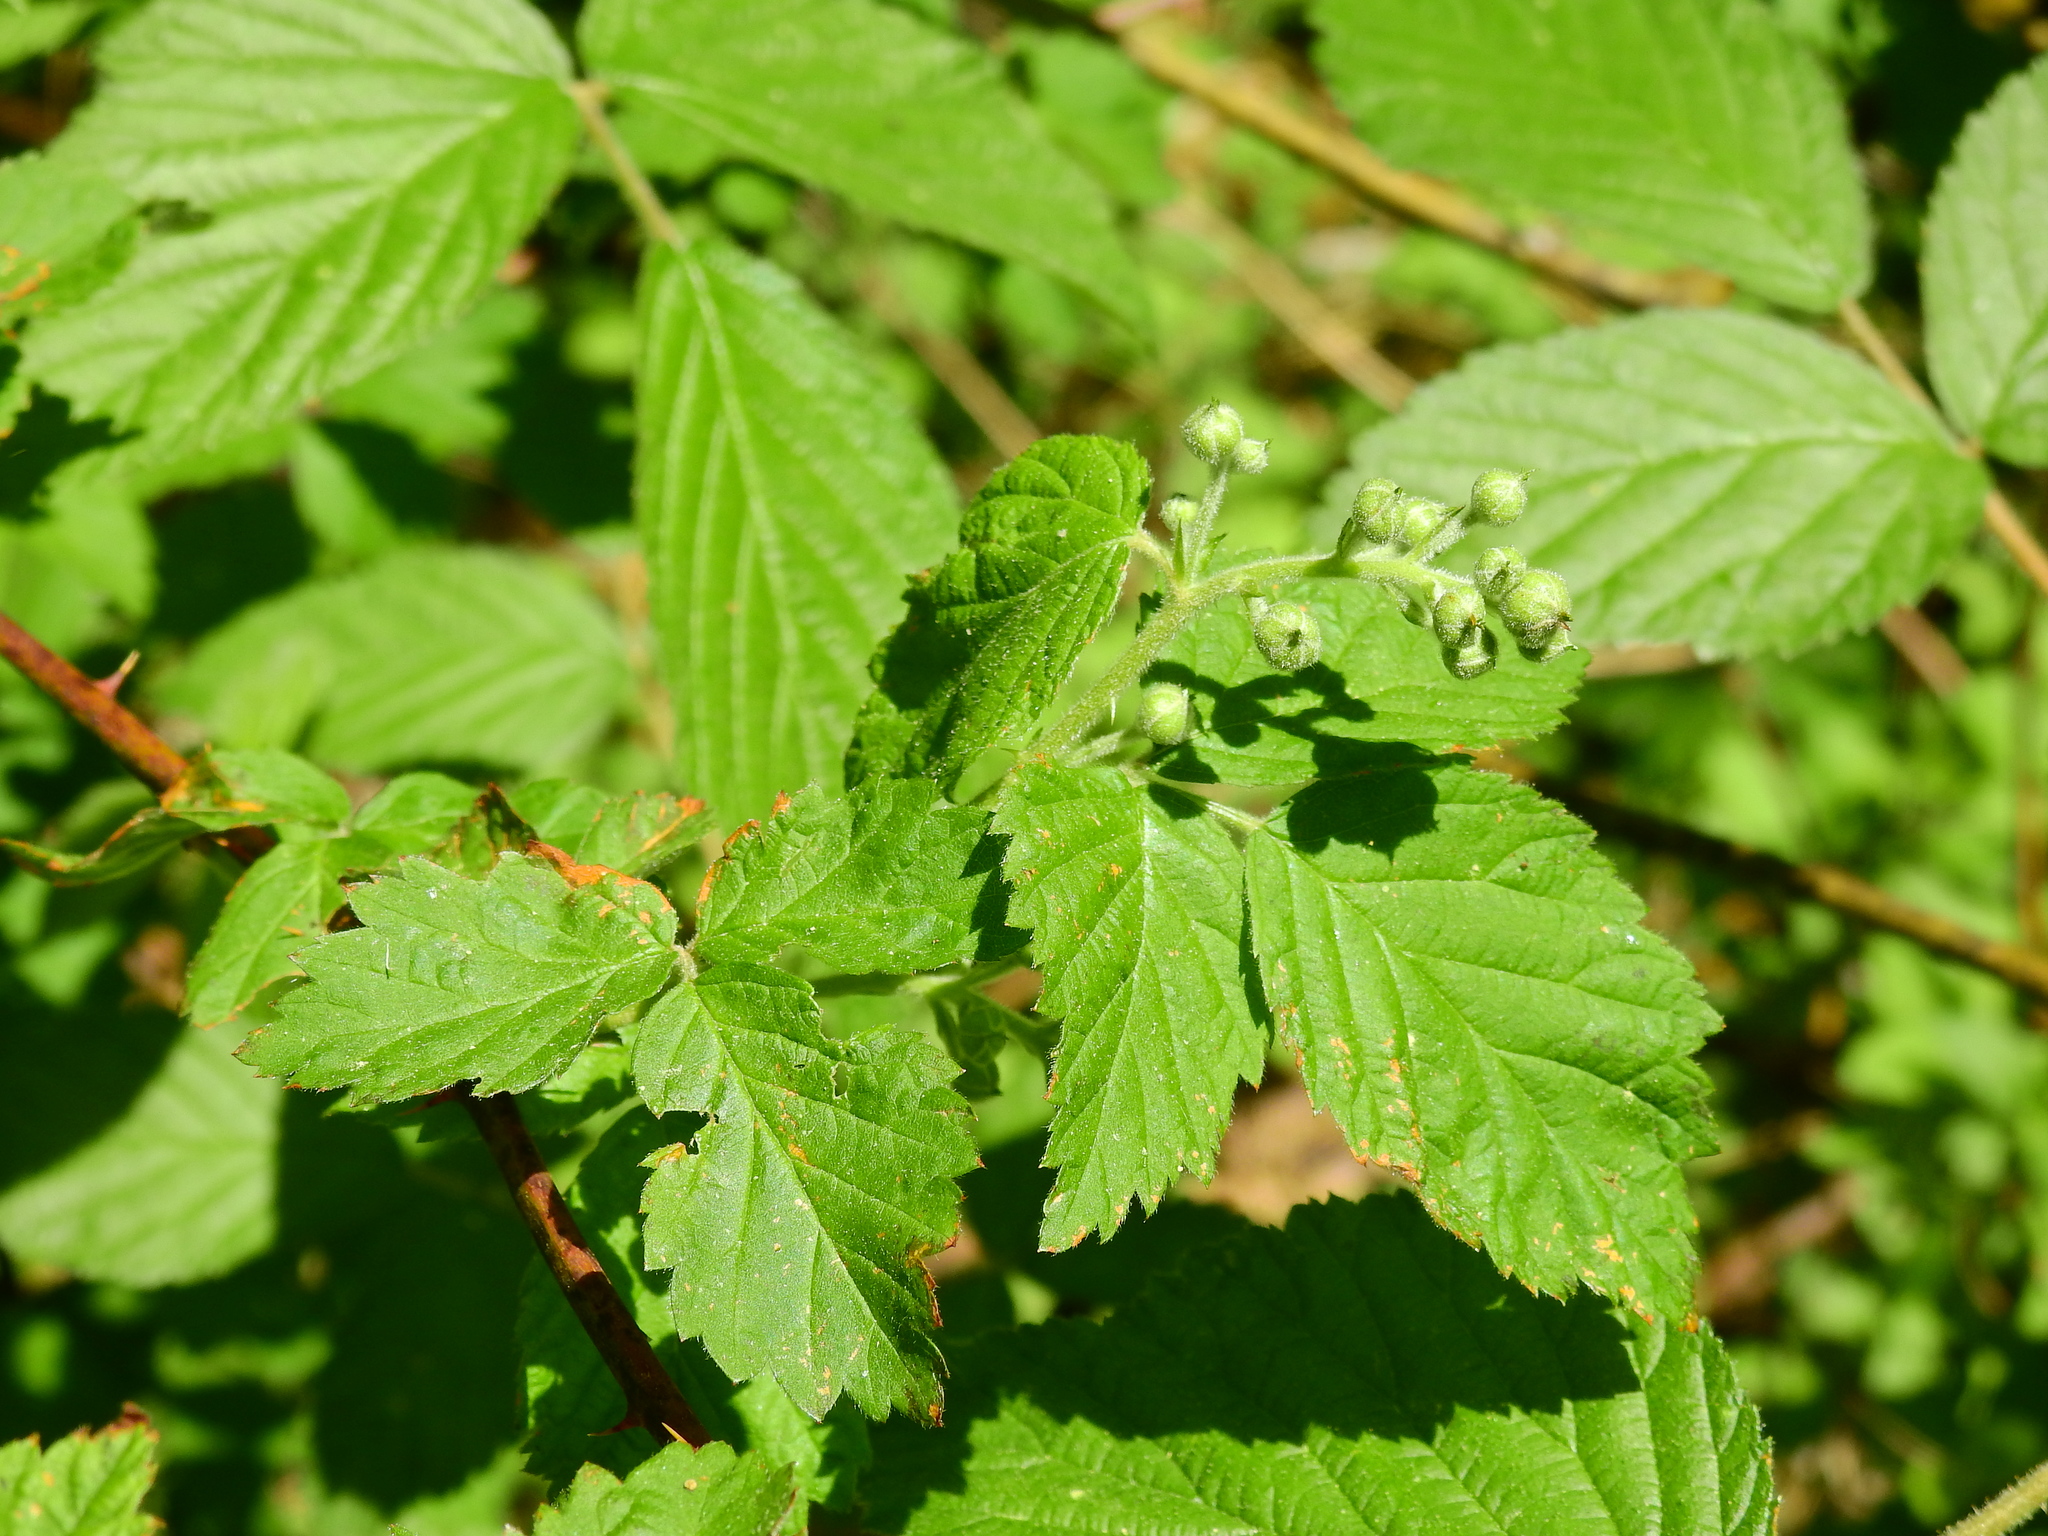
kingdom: Plantae
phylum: Tracheophyta
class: Magnoliopsida
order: Rosales
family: Rosaceae
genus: Rubus
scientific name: Rubus allegheniensis
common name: Allegheny blackberry
